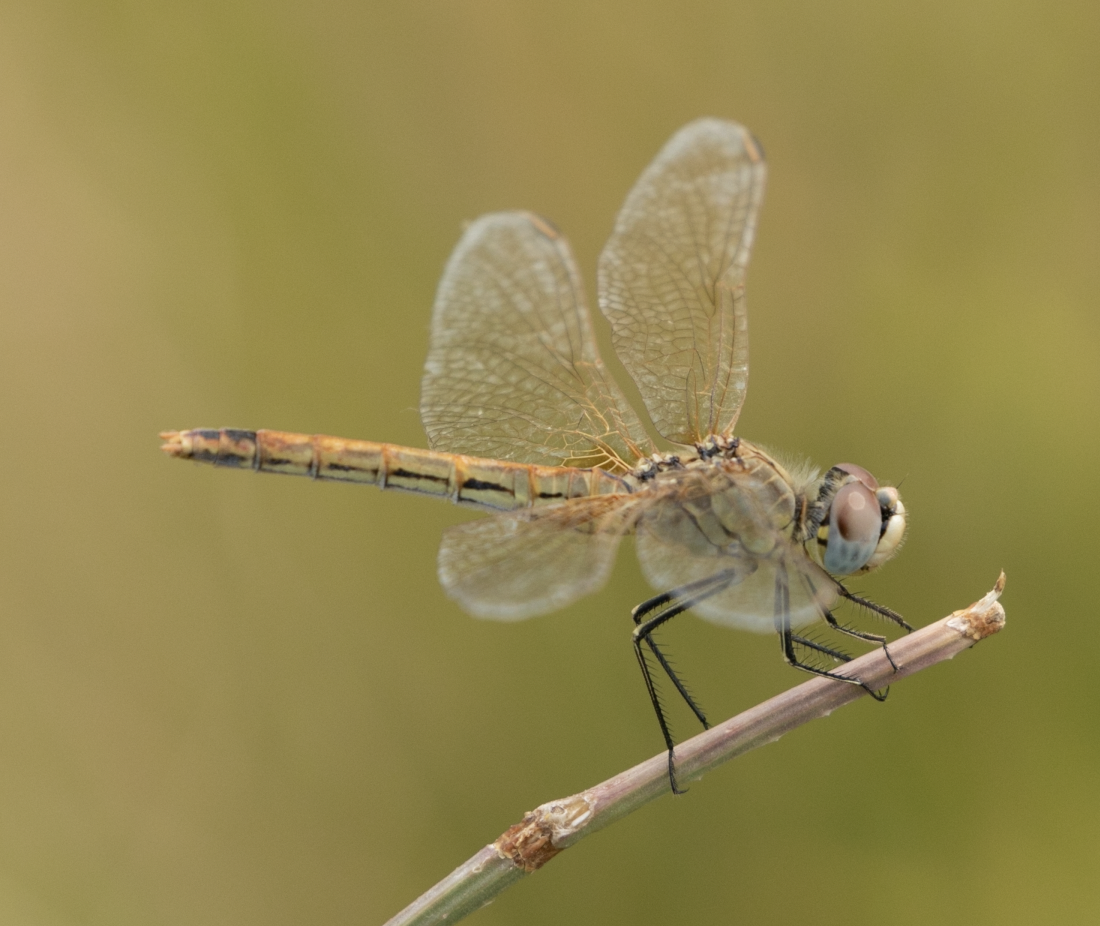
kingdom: Animalia
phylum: Arthropoda
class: Insecta
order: Odonata
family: Libellulidae
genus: Sympetrum
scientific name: Sympetrum fonscolombii
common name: Red-veined darter
